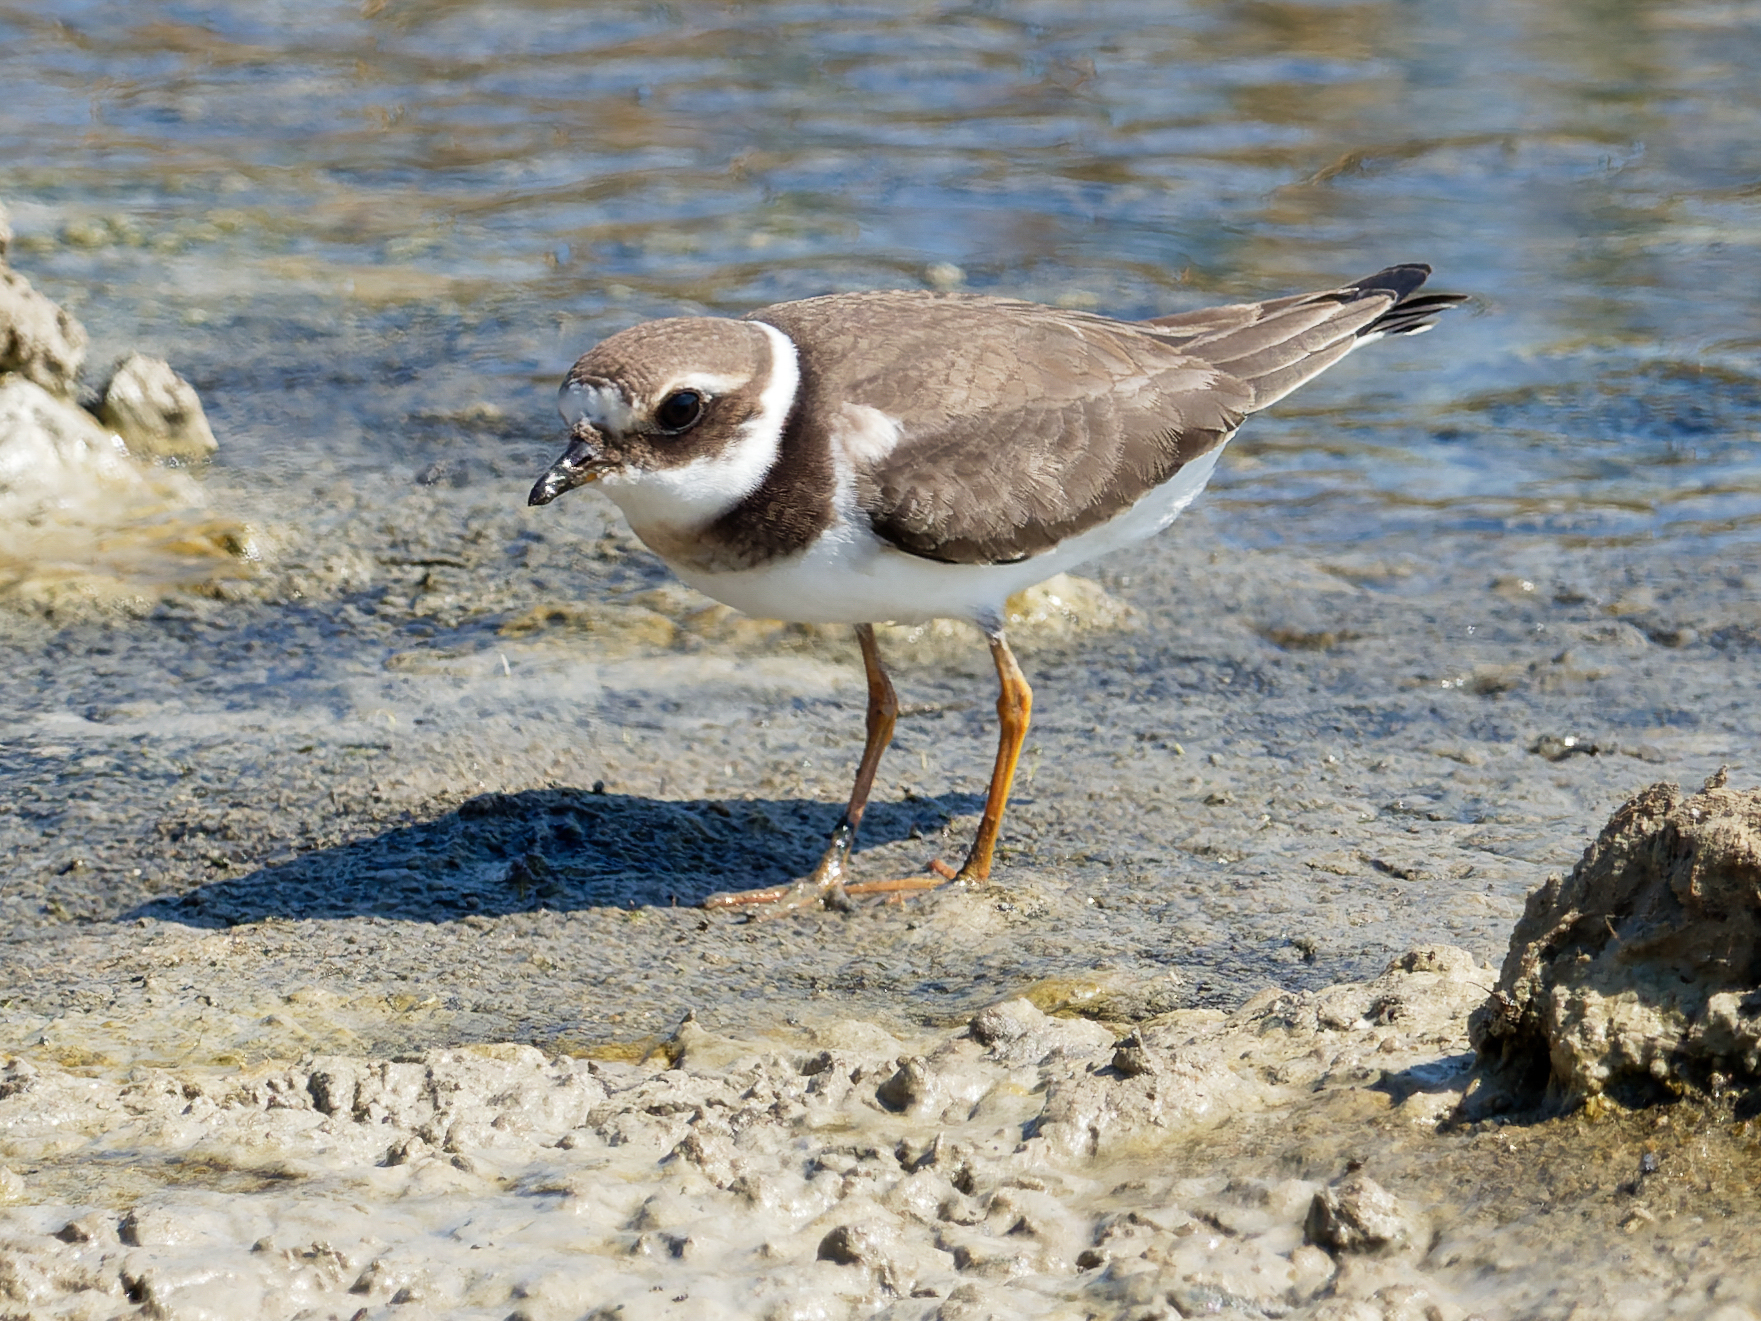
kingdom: Animalia
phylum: Chordata
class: Aves
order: Charadriiformes
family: Charadriidae
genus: Charadrius
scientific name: Charadrius hiaticula
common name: Common ringed plover
